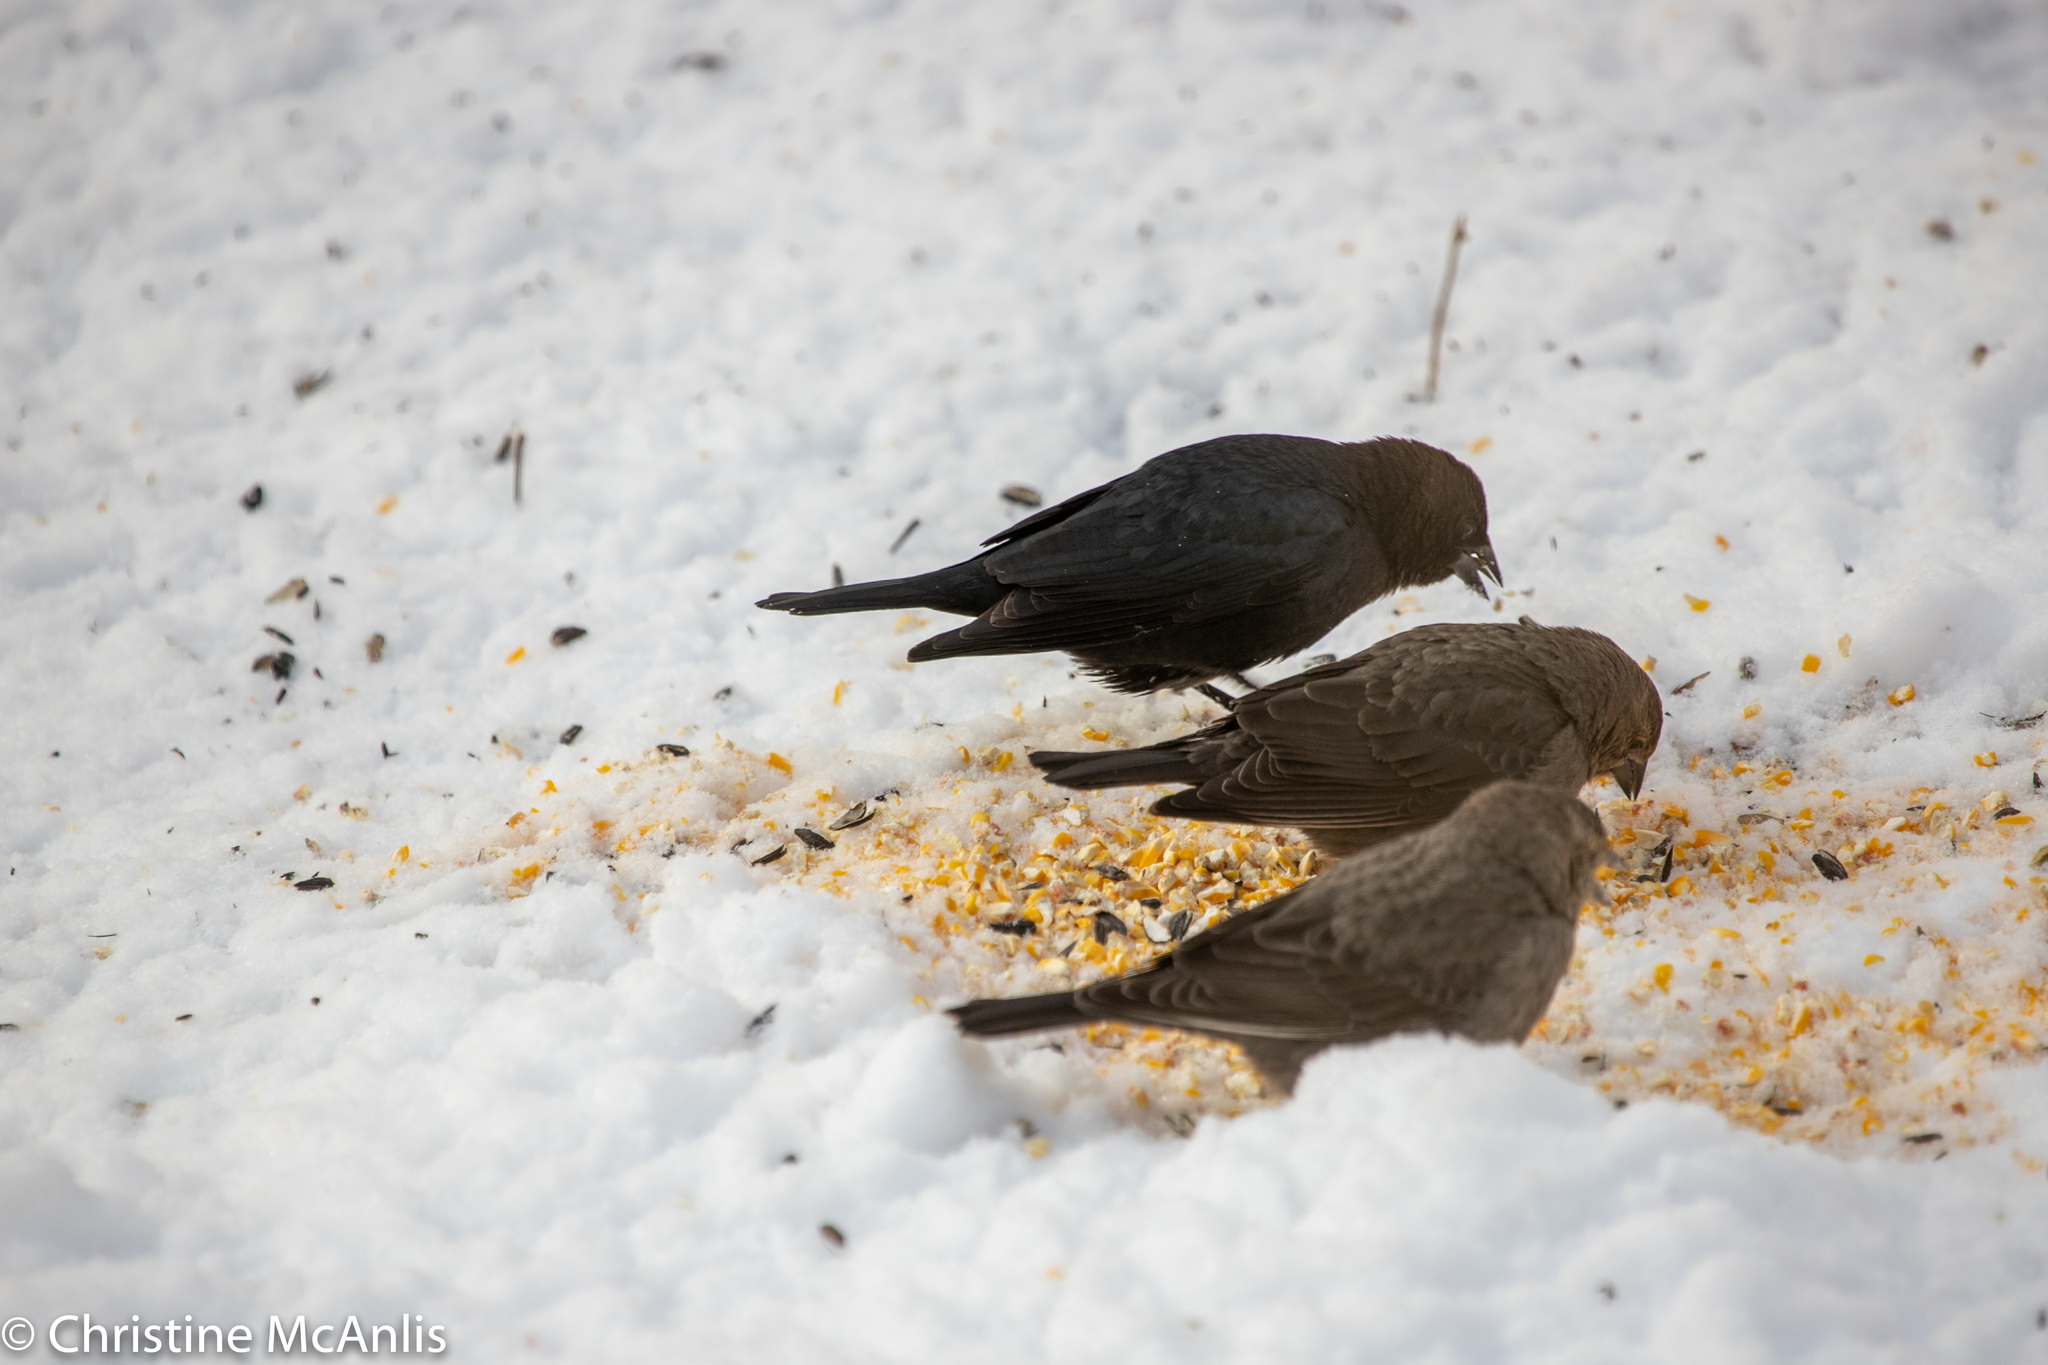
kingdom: Animalia
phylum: Chordata
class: Aves
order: Passeriformes
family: Icteridae
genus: Molothrus
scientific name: Molothrus ater
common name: Brown-headed cowbird
